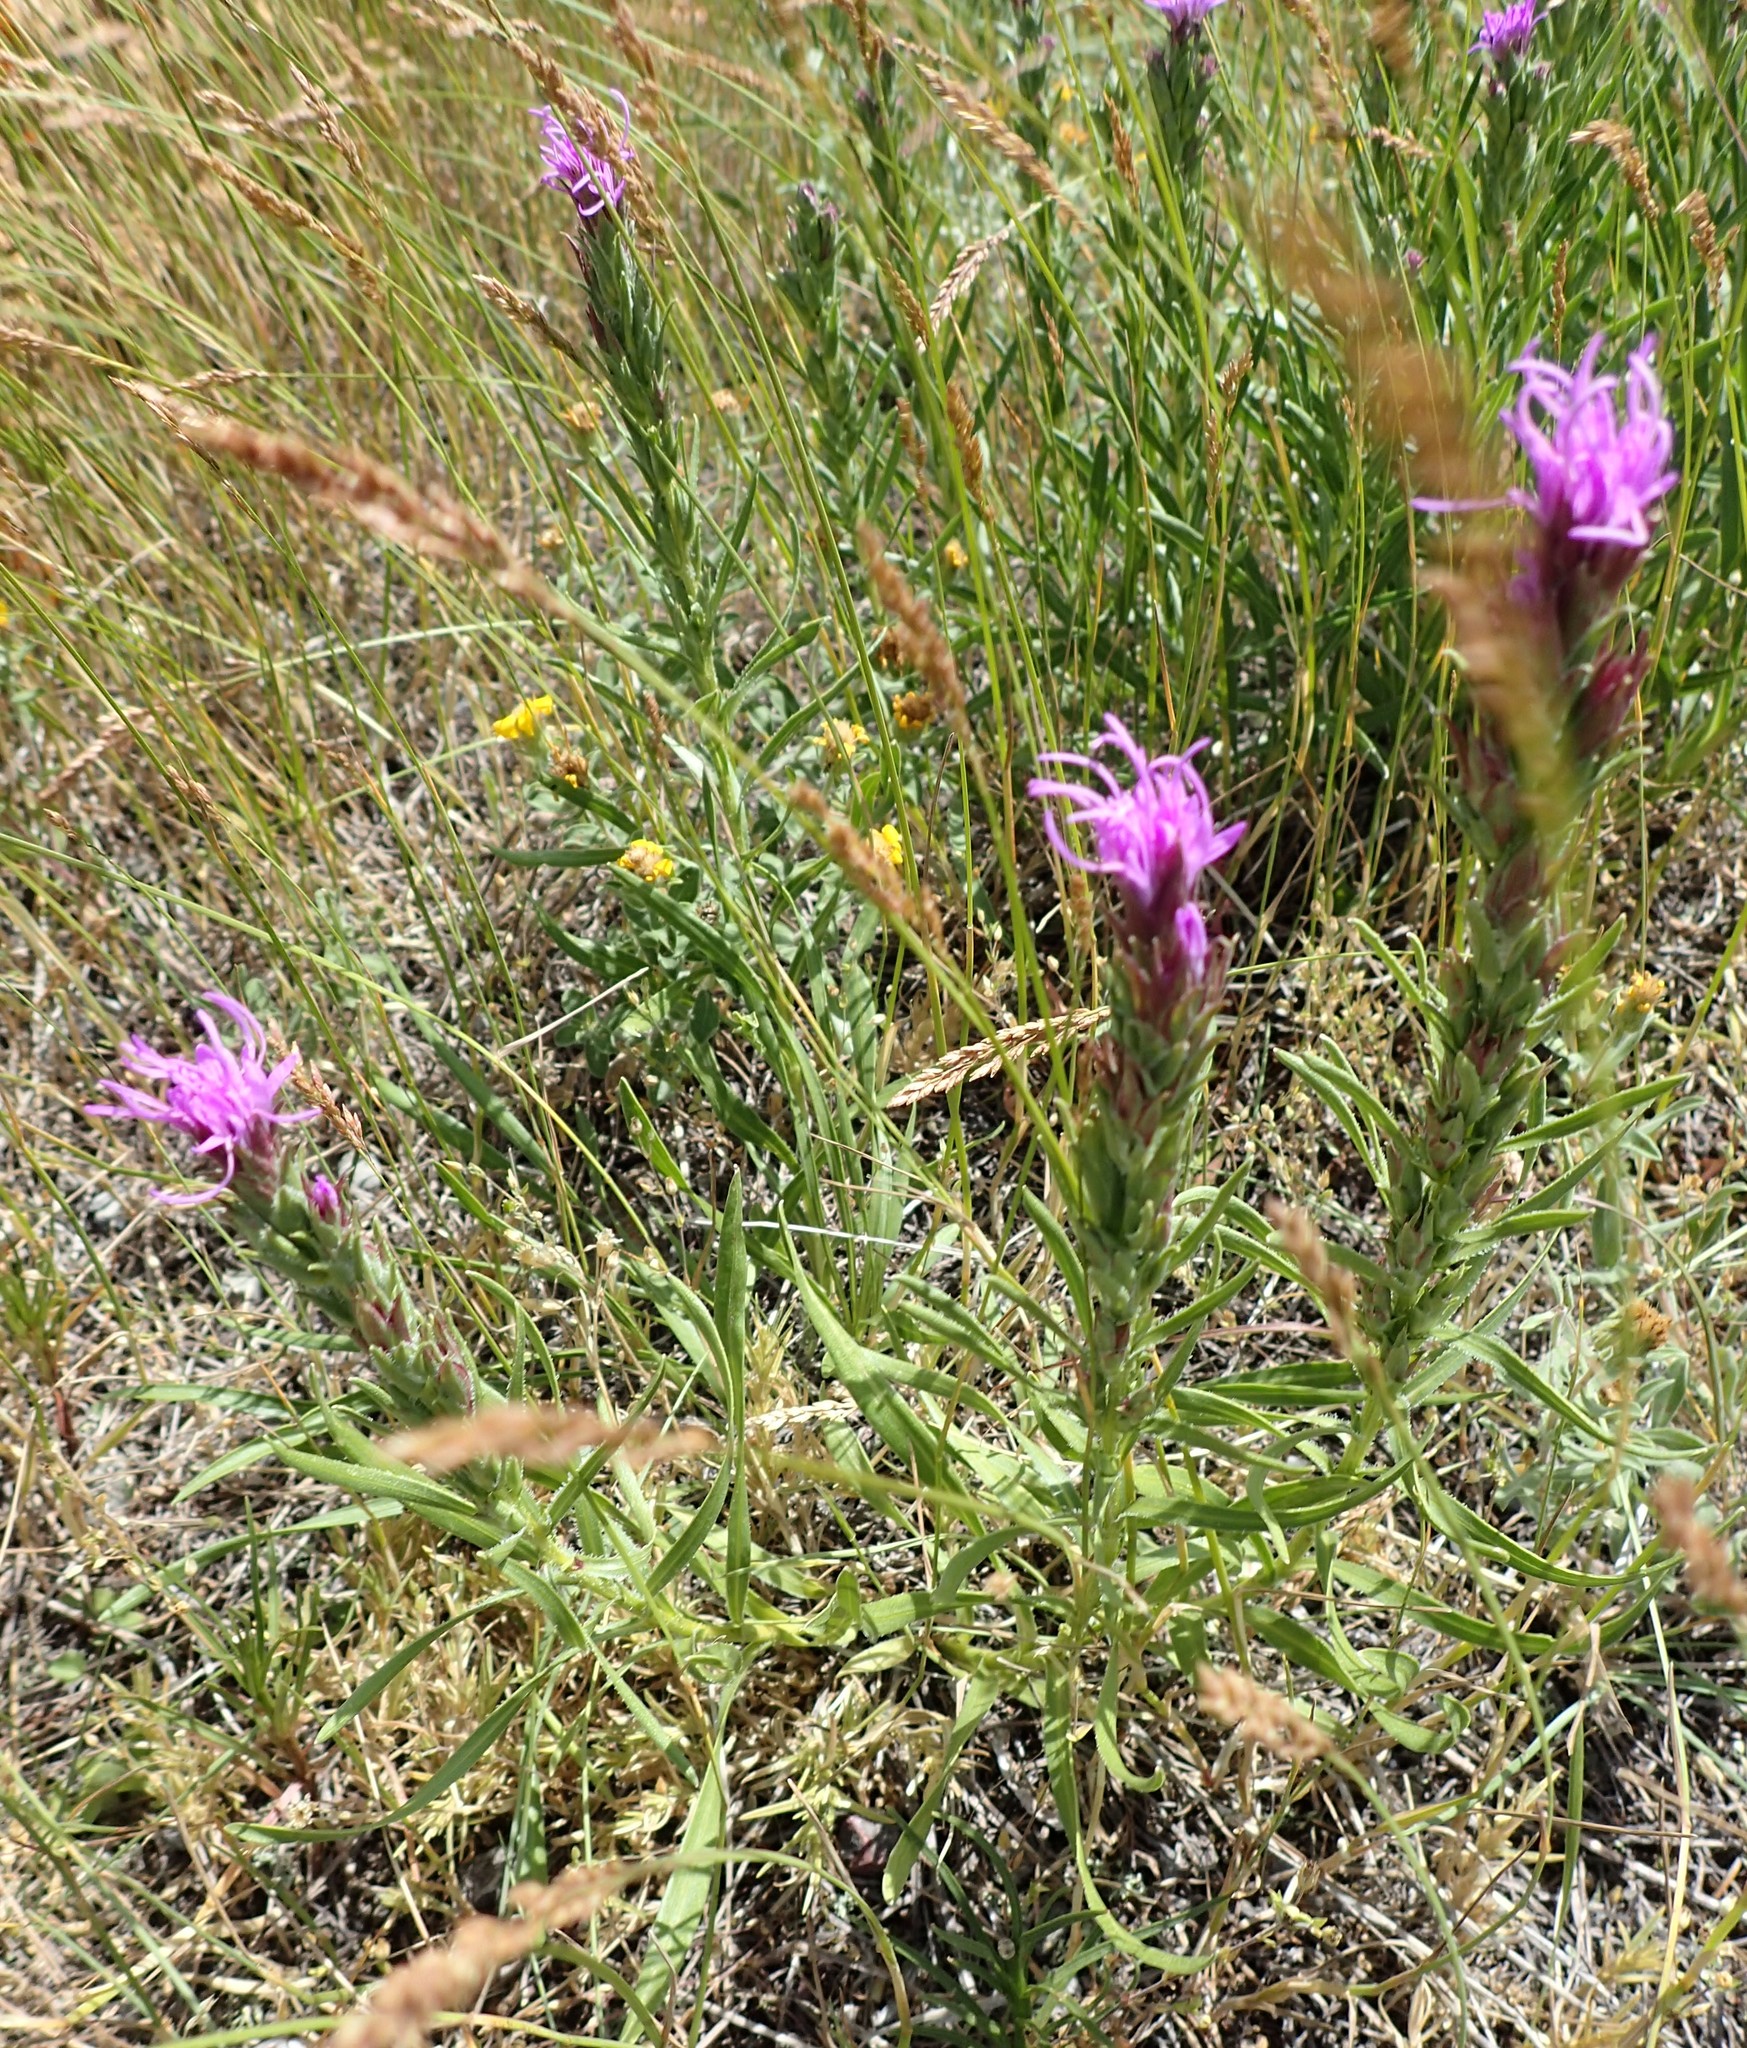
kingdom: Plantae
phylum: Tracheophyta
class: Magnoliopsida
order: Asterales
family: Asteraceae
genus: Liatris
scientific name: Liatris punctata
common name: Dotted gayfeather
